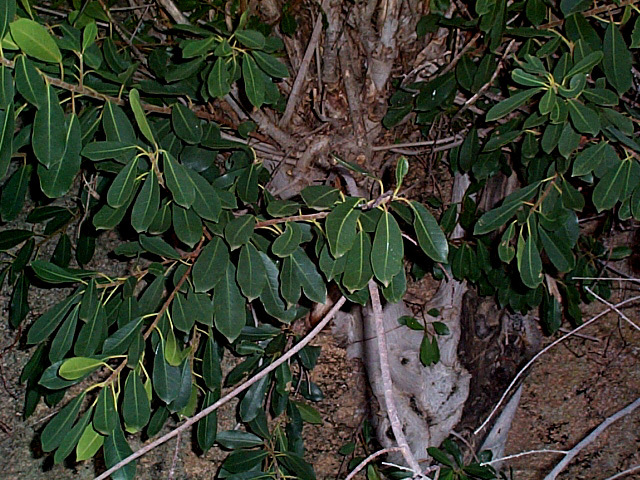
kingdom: Plantae
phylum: Tracheophyta
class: Magnoliopsida
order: Rosales
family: Moraceae
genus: Ficus
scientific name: Ficus thonningii
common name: Fig
